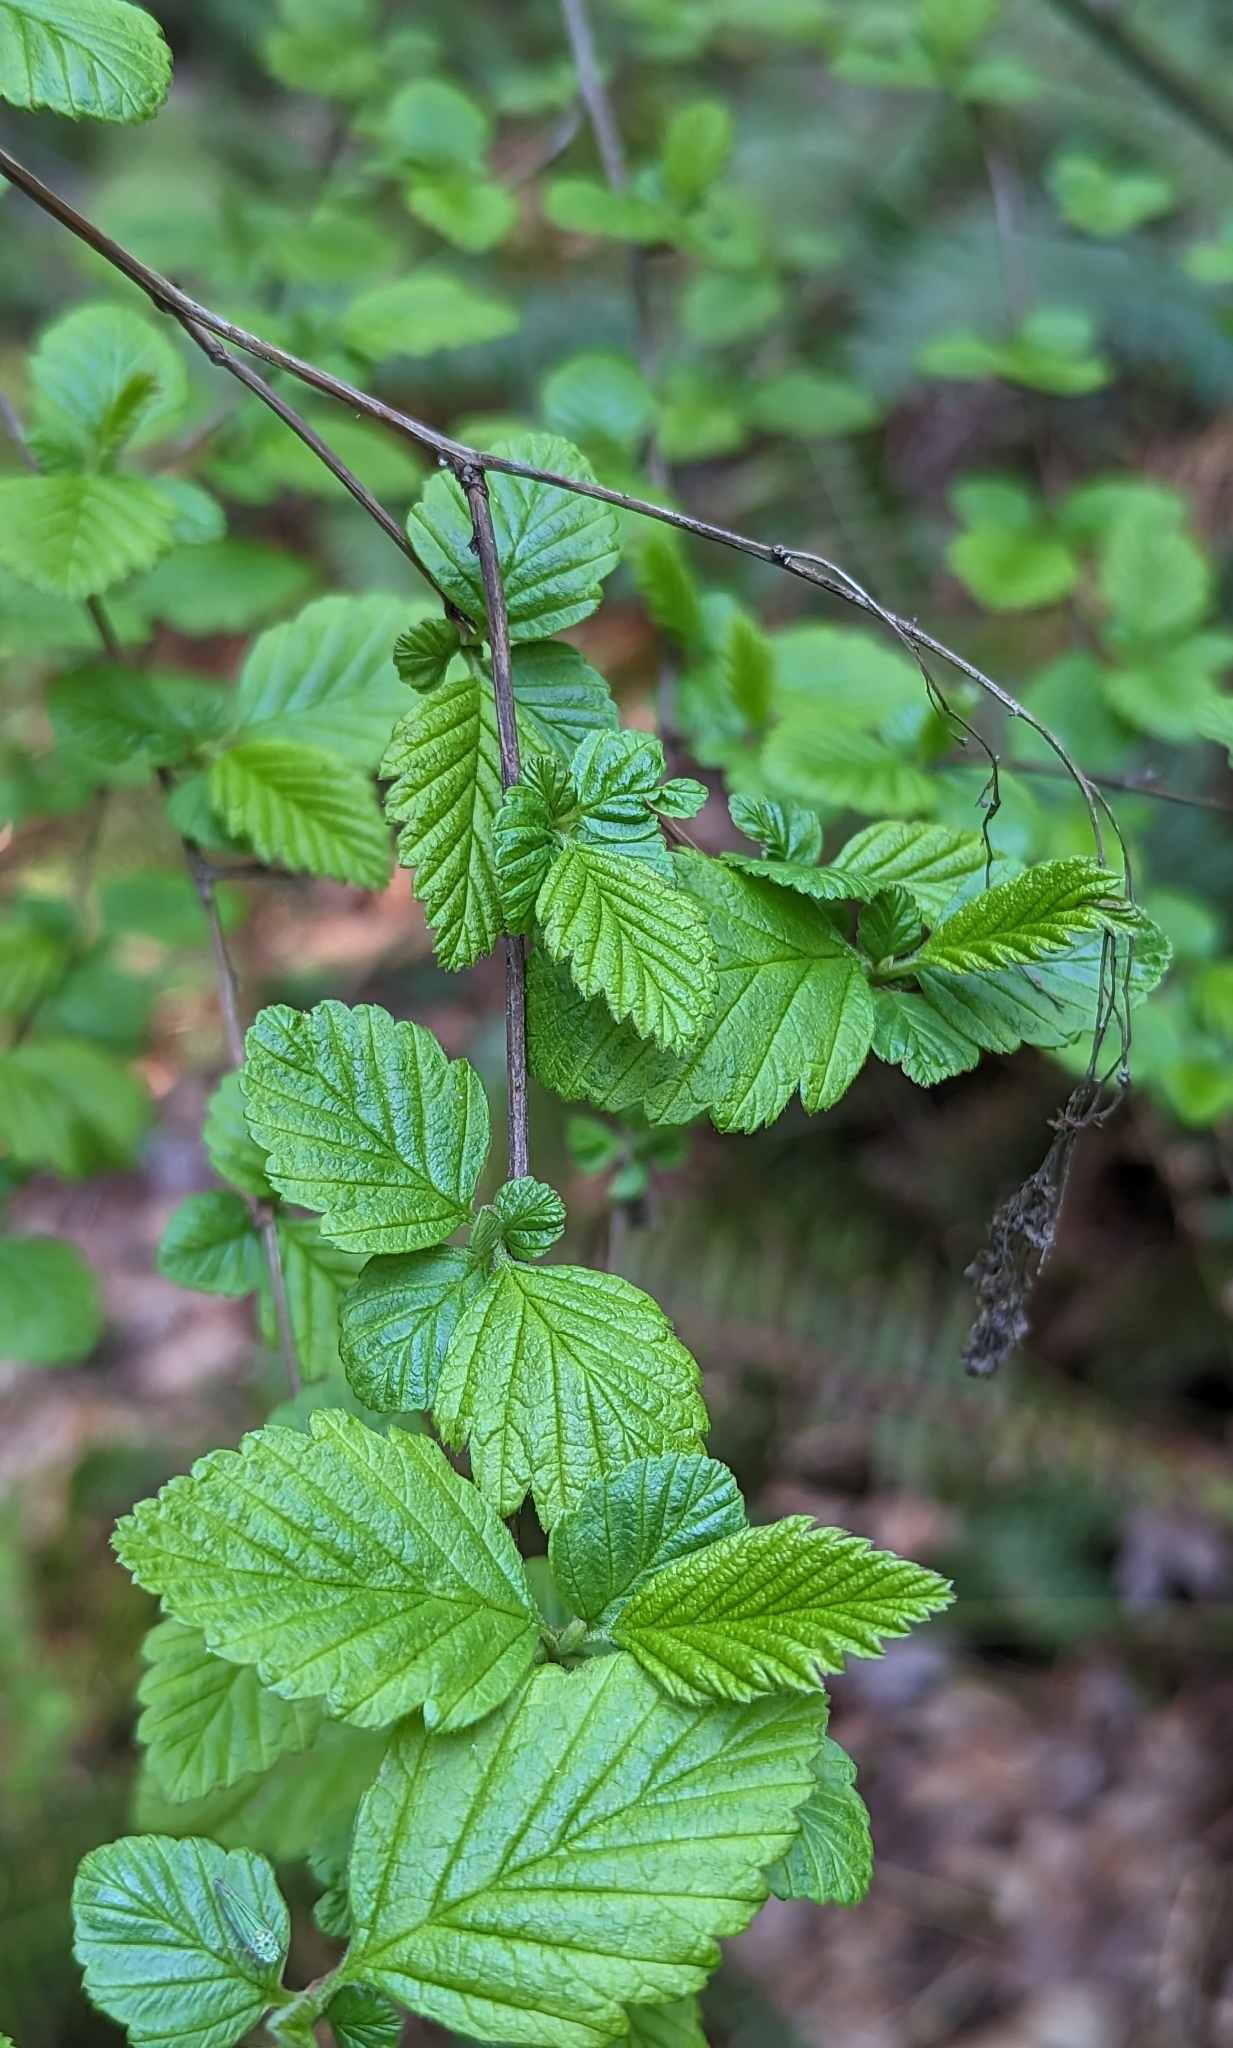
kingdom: Plantae
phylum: Tracheophyta
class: Magnoliopsida
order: Rosales
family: Rosaceae
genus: Holodiscus
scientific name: Holodiscus discolor
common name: Oceanspray
